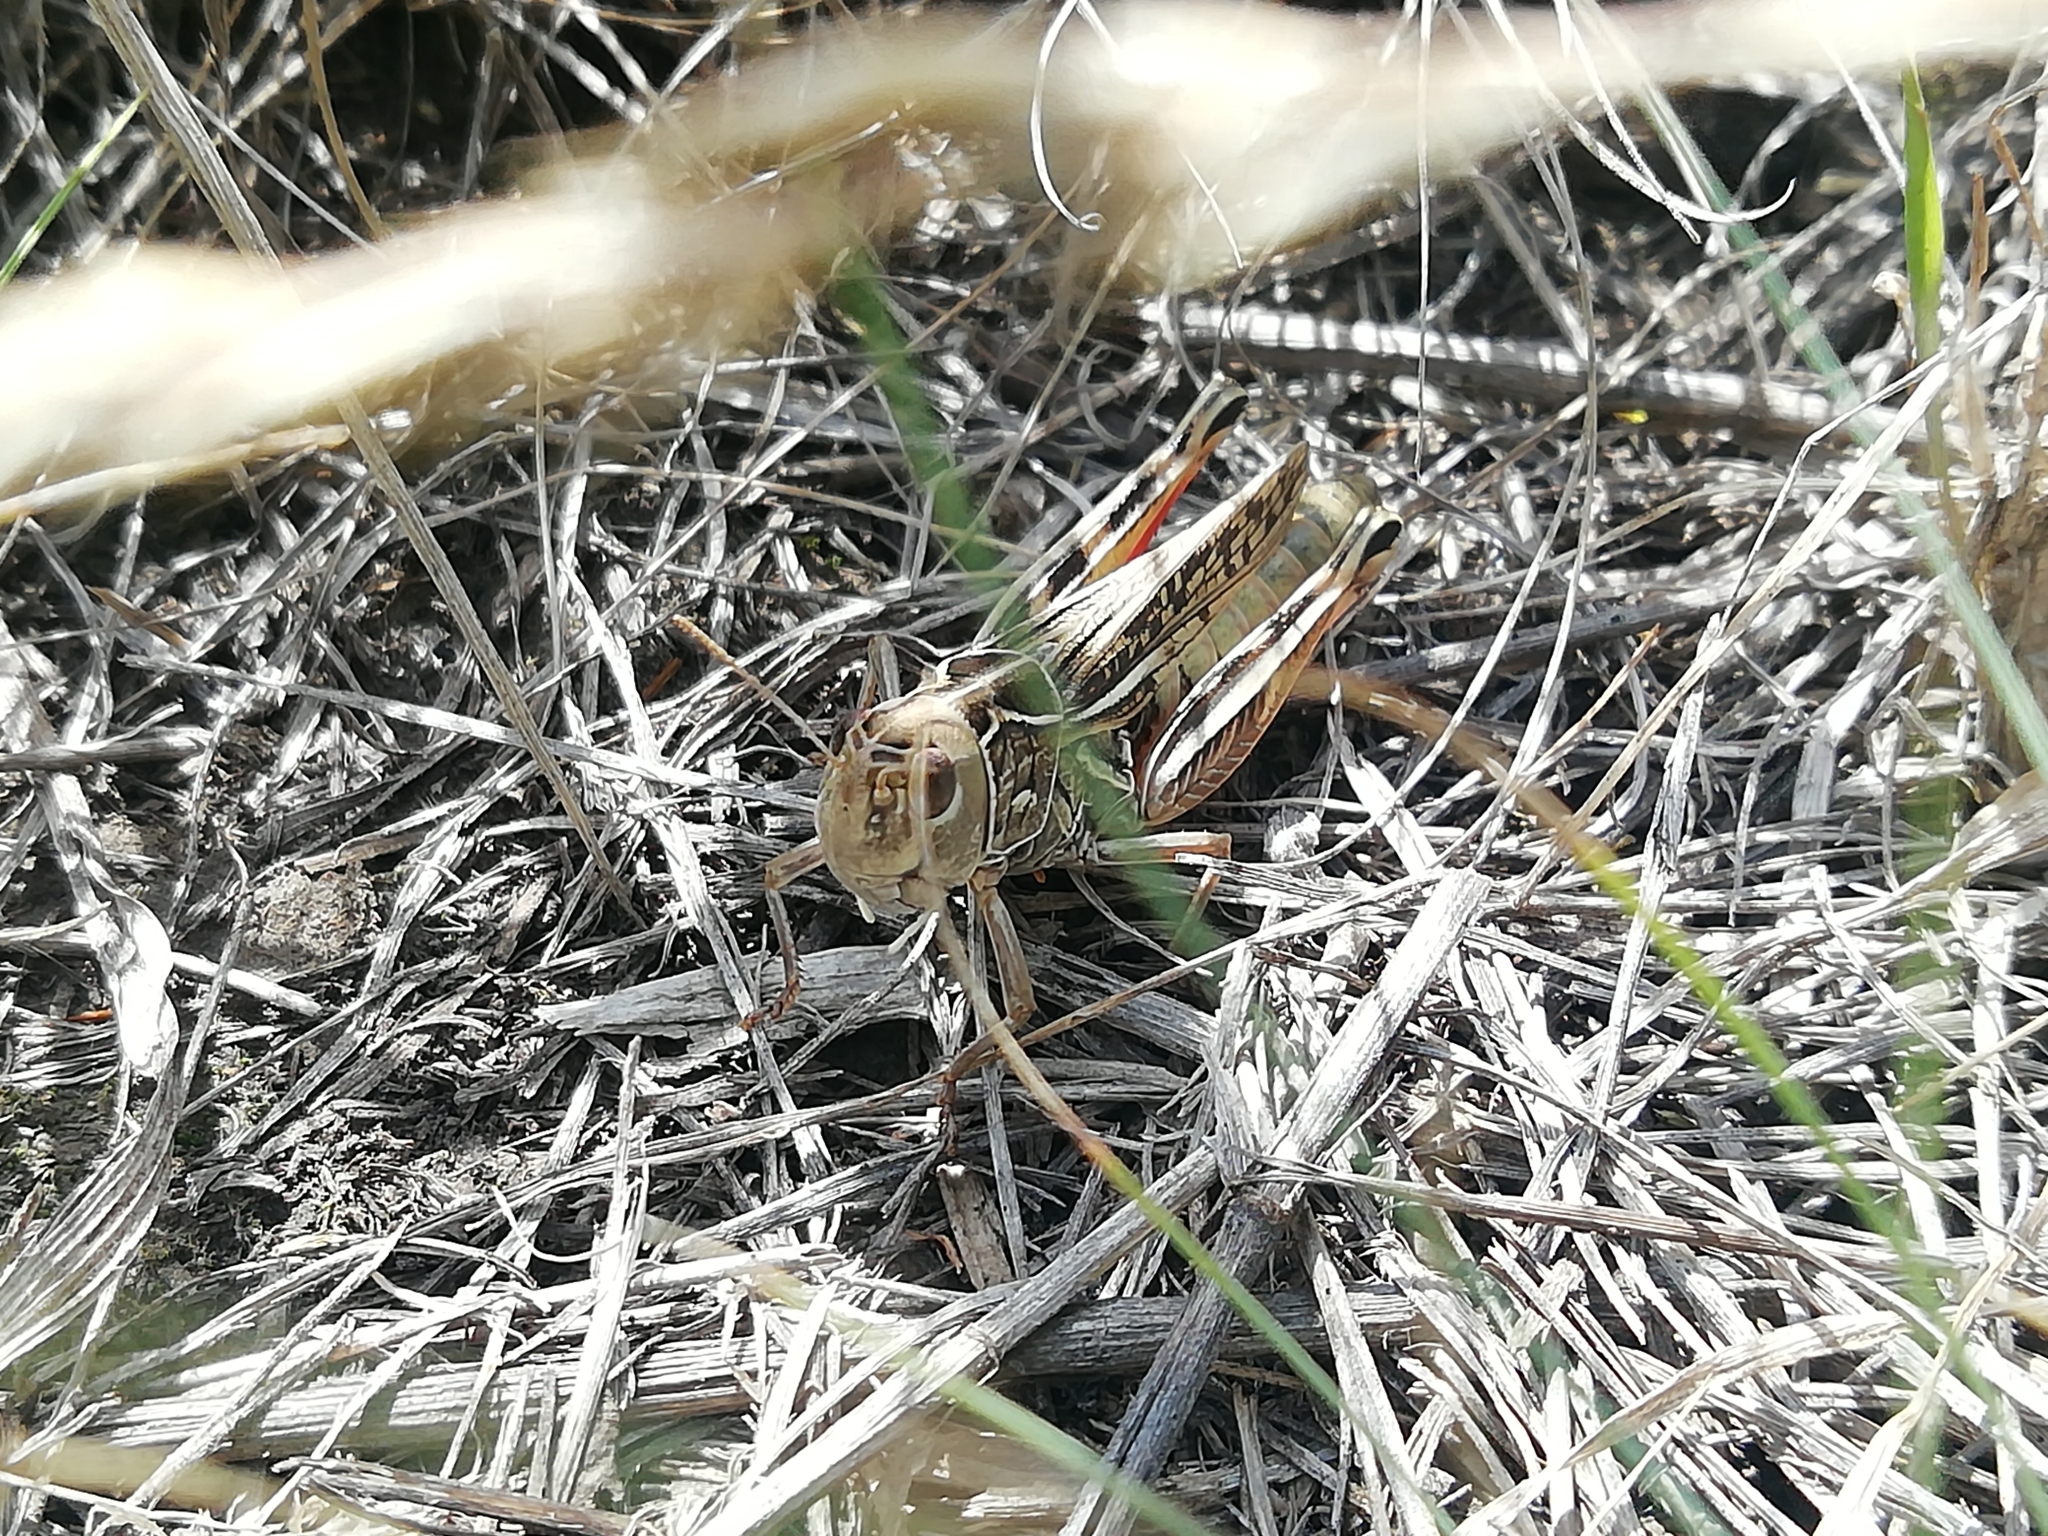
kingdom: Animalia
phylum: Arthropoda
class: Insecta
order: Orthoptera
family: Acrididae
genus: Arcyptera
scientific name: Arcyptera microptera
